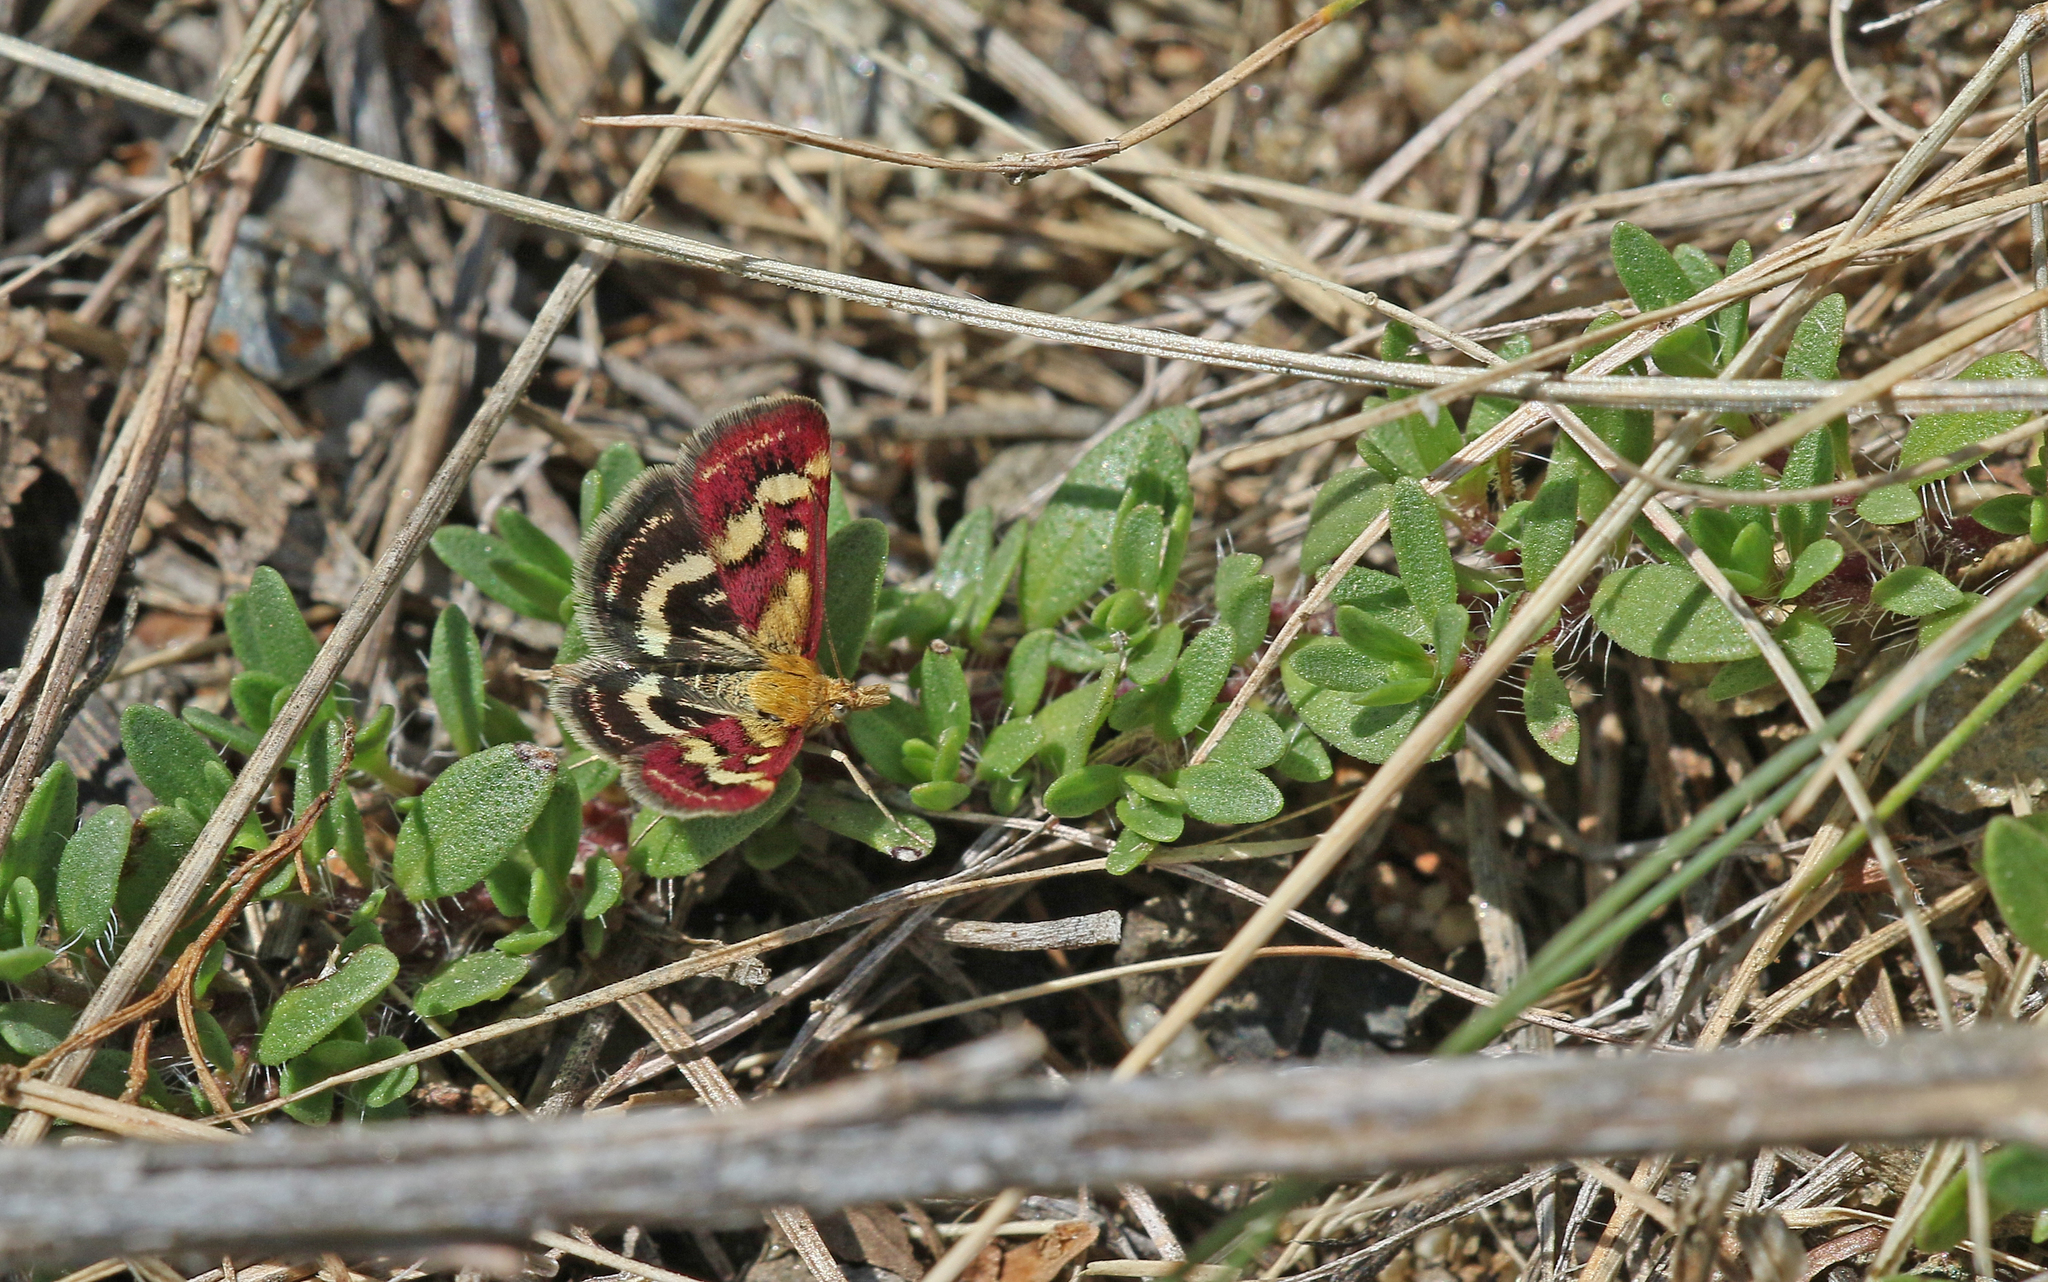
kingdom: Animalia
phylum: Arthropoda
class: Insecta
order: Lepidoptera
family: Crambidae
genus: Pyrausta
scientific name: Pyrausta ostrinalis
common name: Scarce purple & gold
